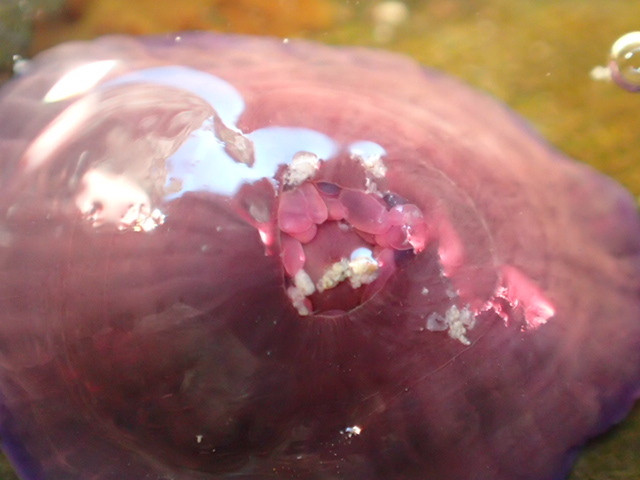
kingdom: Animalia
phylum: Cnidaria
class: Anthozoa
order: Actiniaria
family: Actiniidae
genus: Actinia
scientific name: Actinia tenebrosa
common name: Waratah anemone
